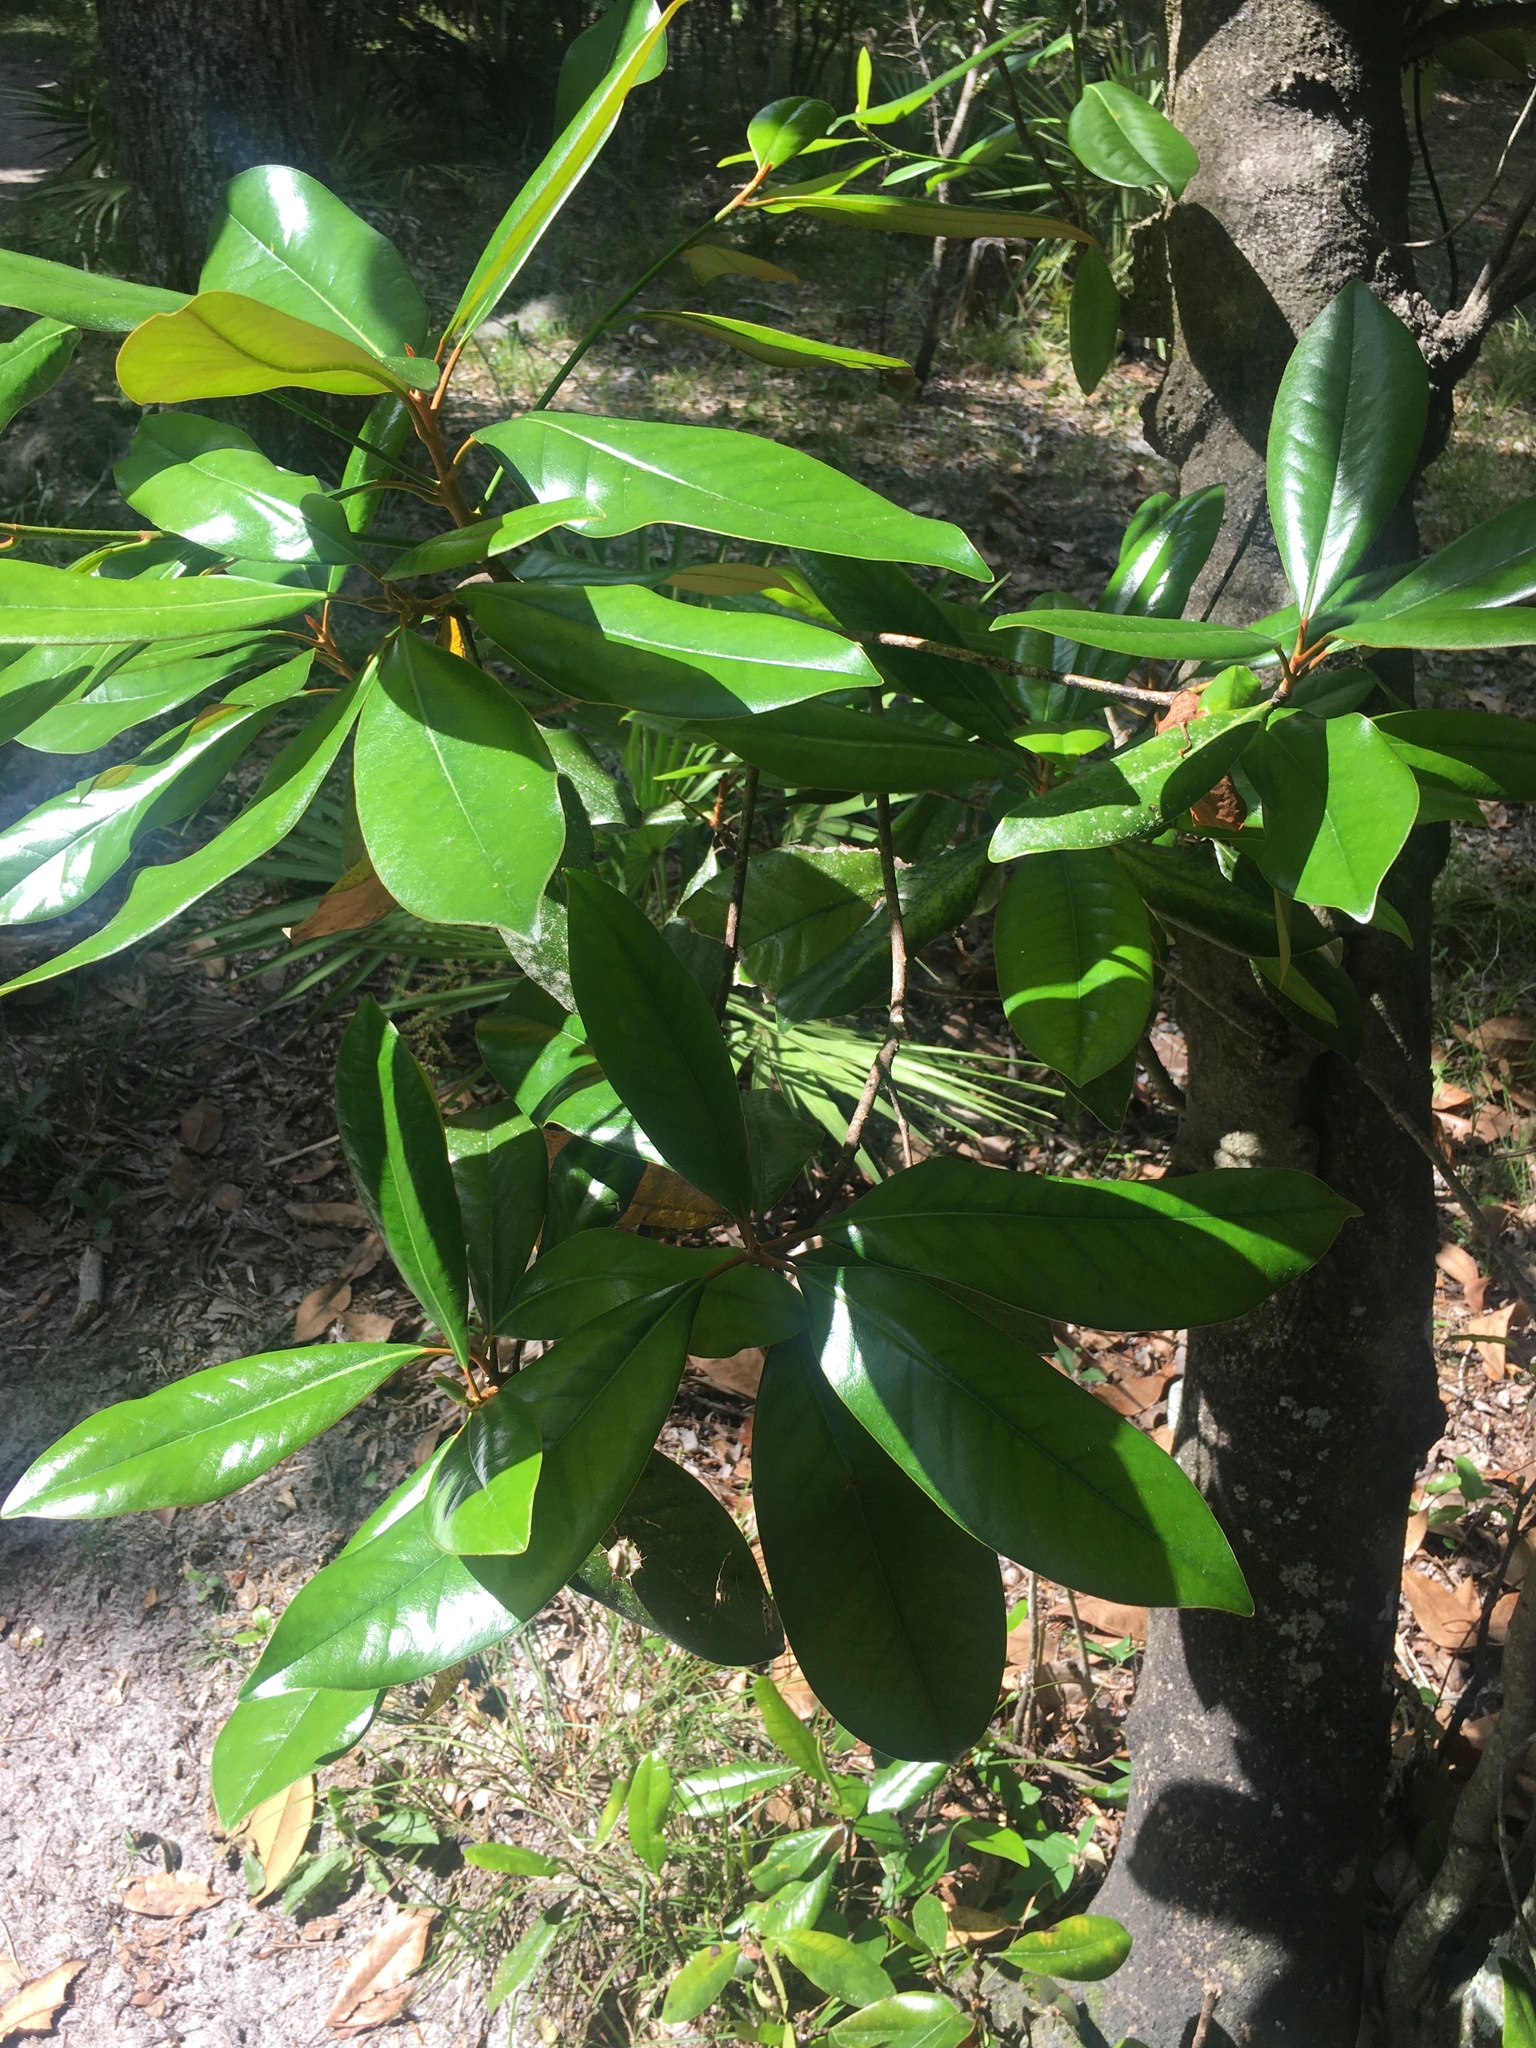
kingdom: Plantae
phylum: Tracheophyta
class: Magnoliopsida
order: Magnoliales
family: Magnoliaceae
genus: Magnolia
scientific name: Magnolia grandiflora
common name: Southern magnolia
